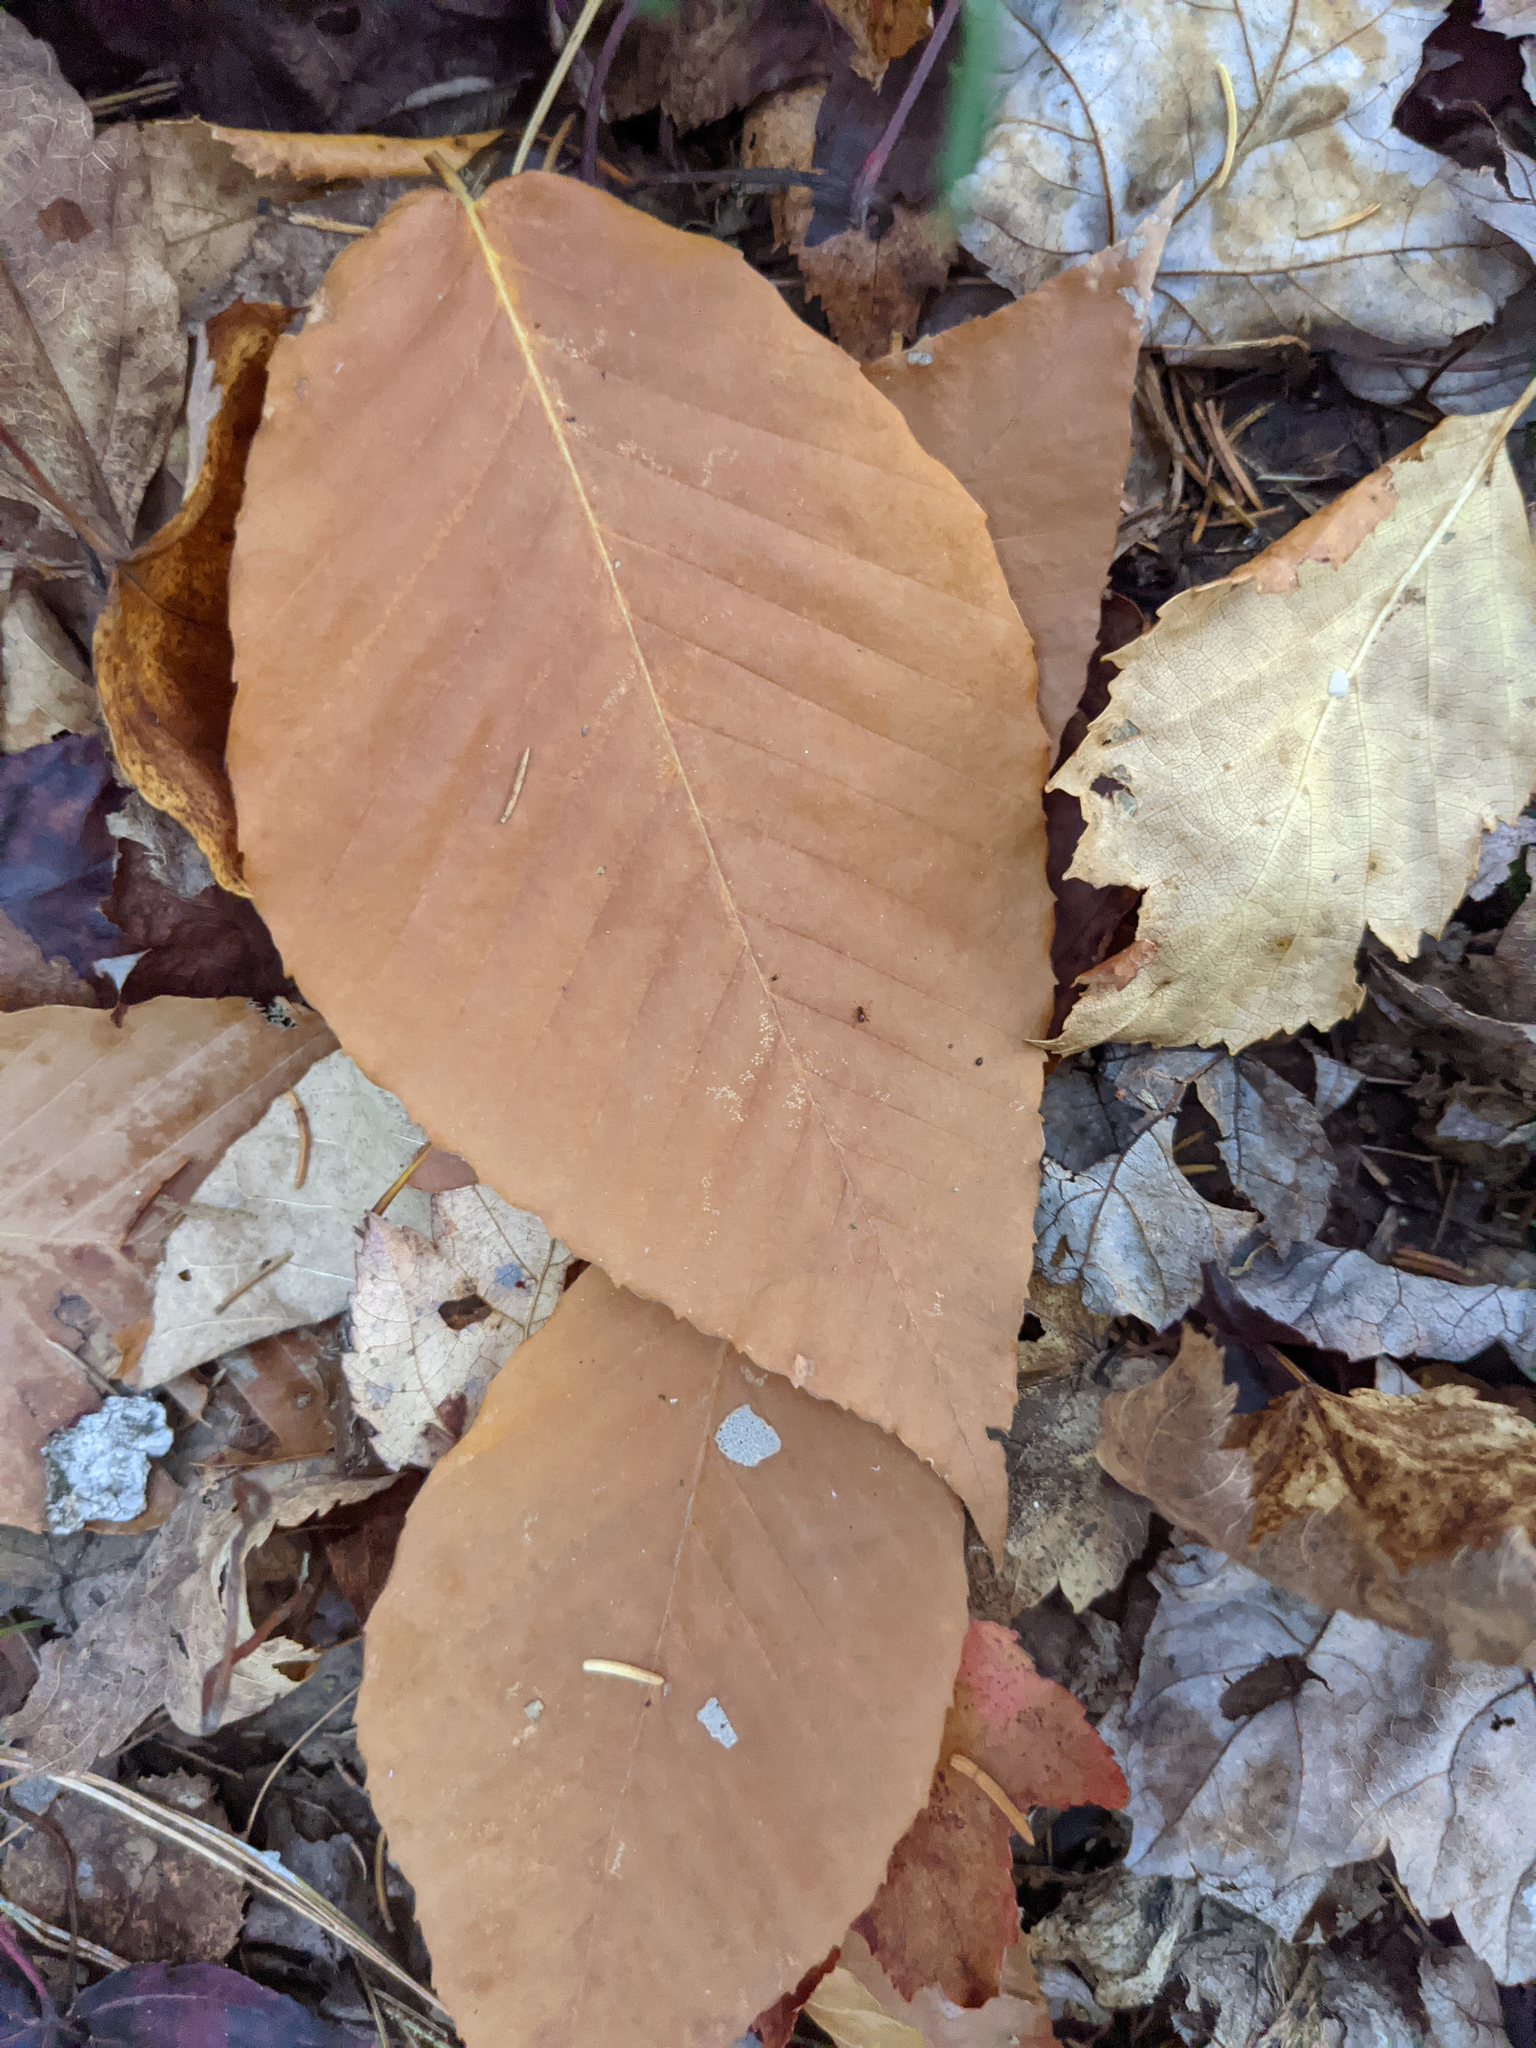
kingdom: Plantae
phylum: Tracheophyta
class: Magnoliopsida
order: Fagales
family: Fagaceae
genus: Fagus
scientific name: Fagus grandifolia
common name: American beech
